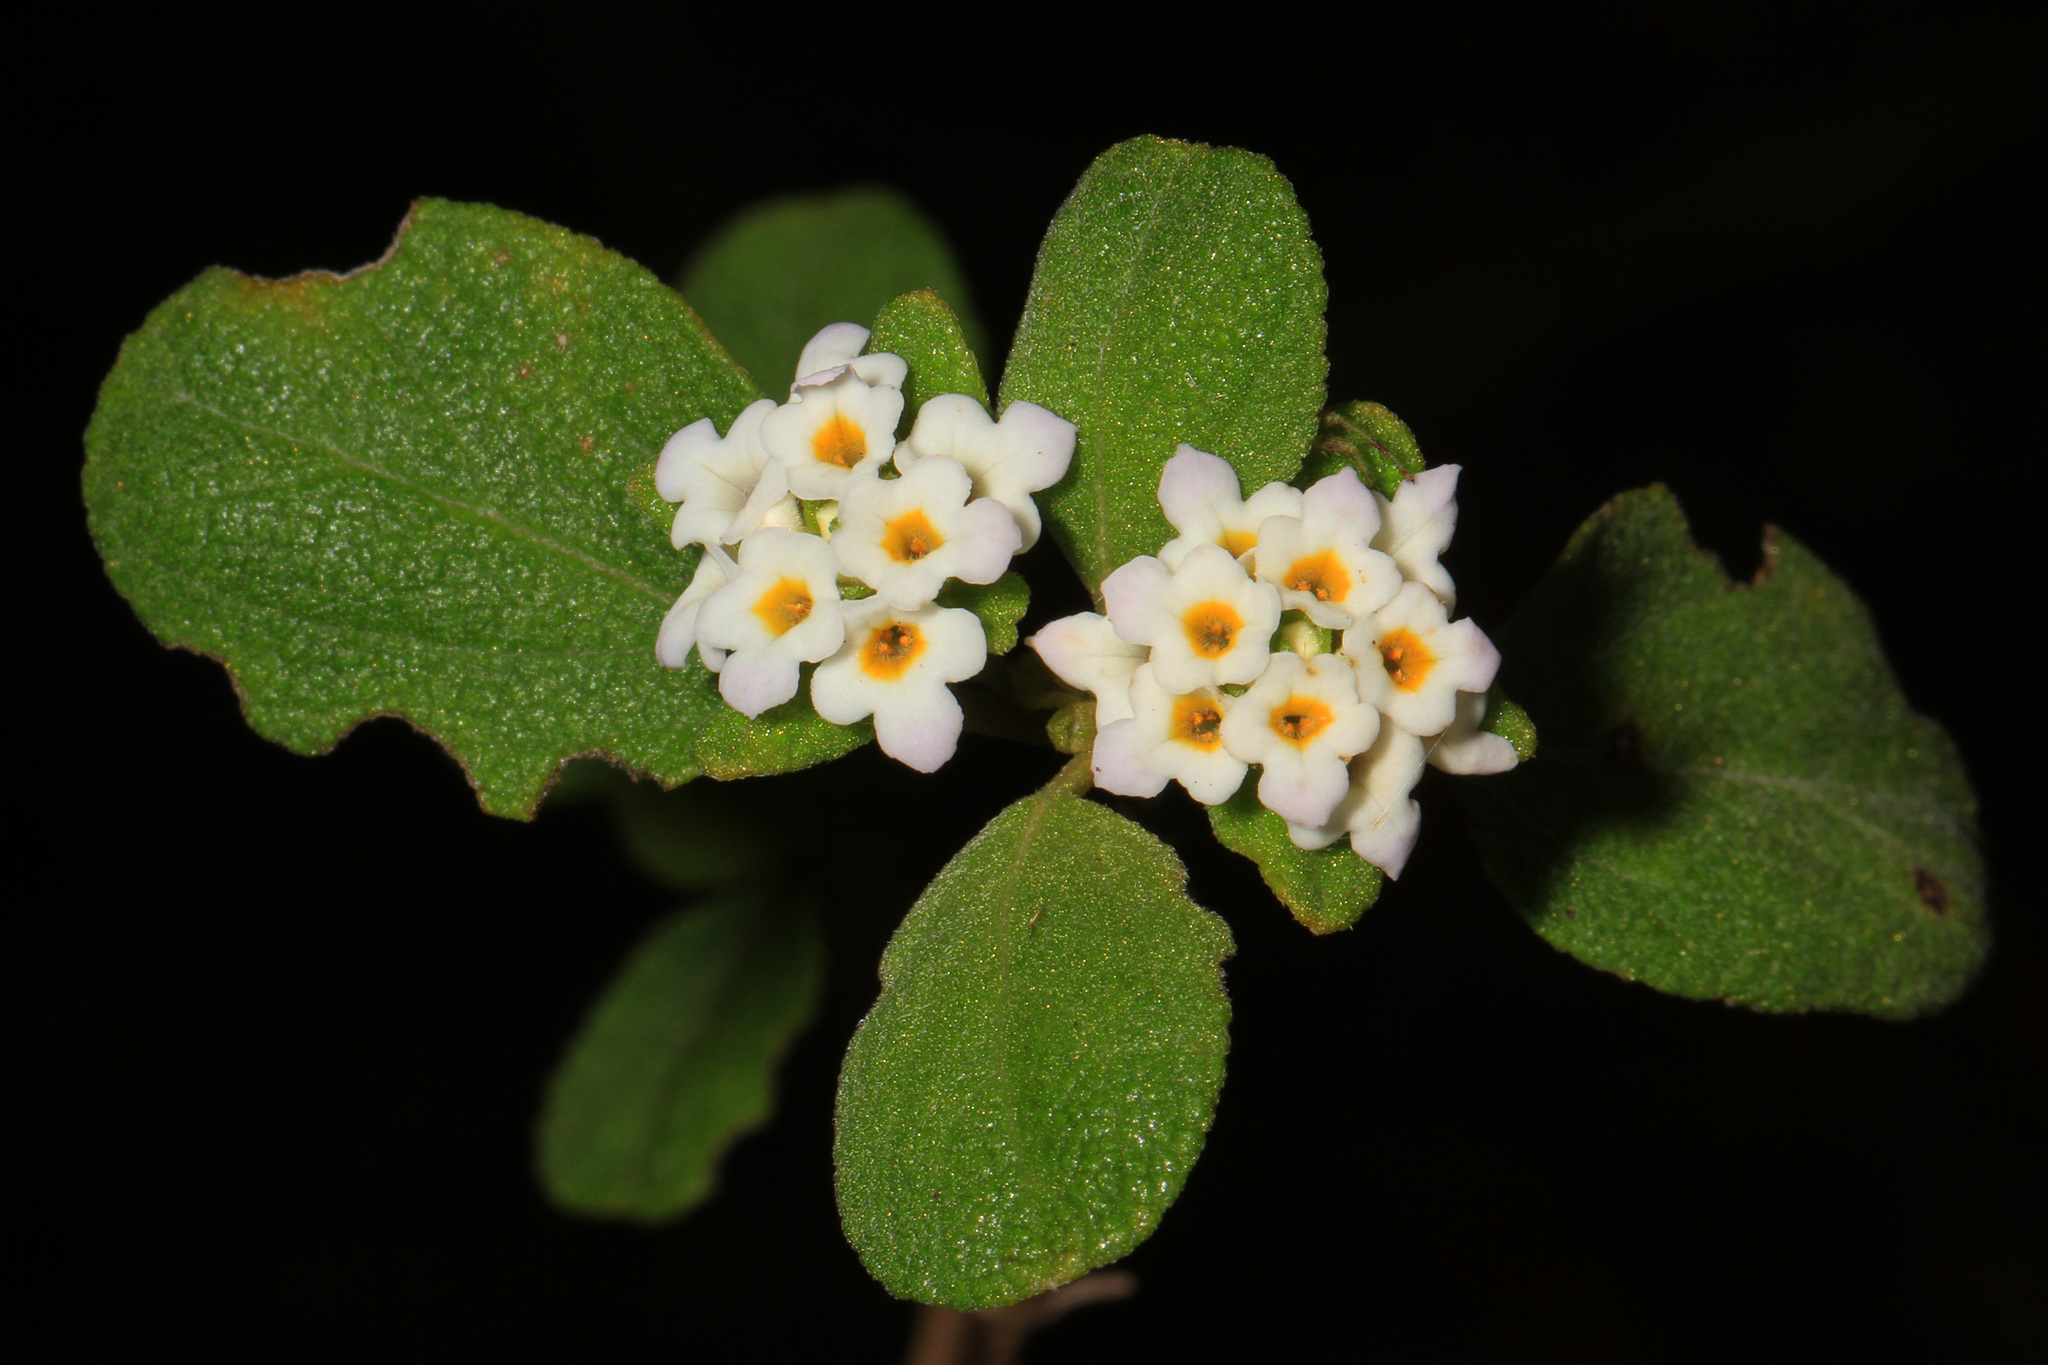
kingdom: Plantae
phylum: Tracheophyta
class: Magnoliopsida
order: Lamiales
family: Verbenaceae
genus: Lantana
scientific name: Lantana involucrata
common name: Black sage
